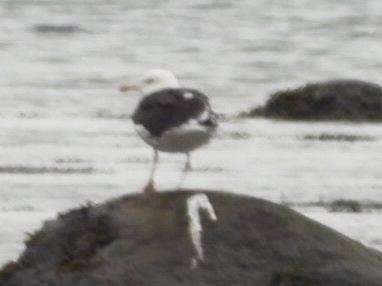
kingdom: Animalia
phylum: Chordata
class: Aves
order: Charadriiformes
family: Laridae
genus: Larus
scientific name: Larus marinus
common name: Great black-backed gull
